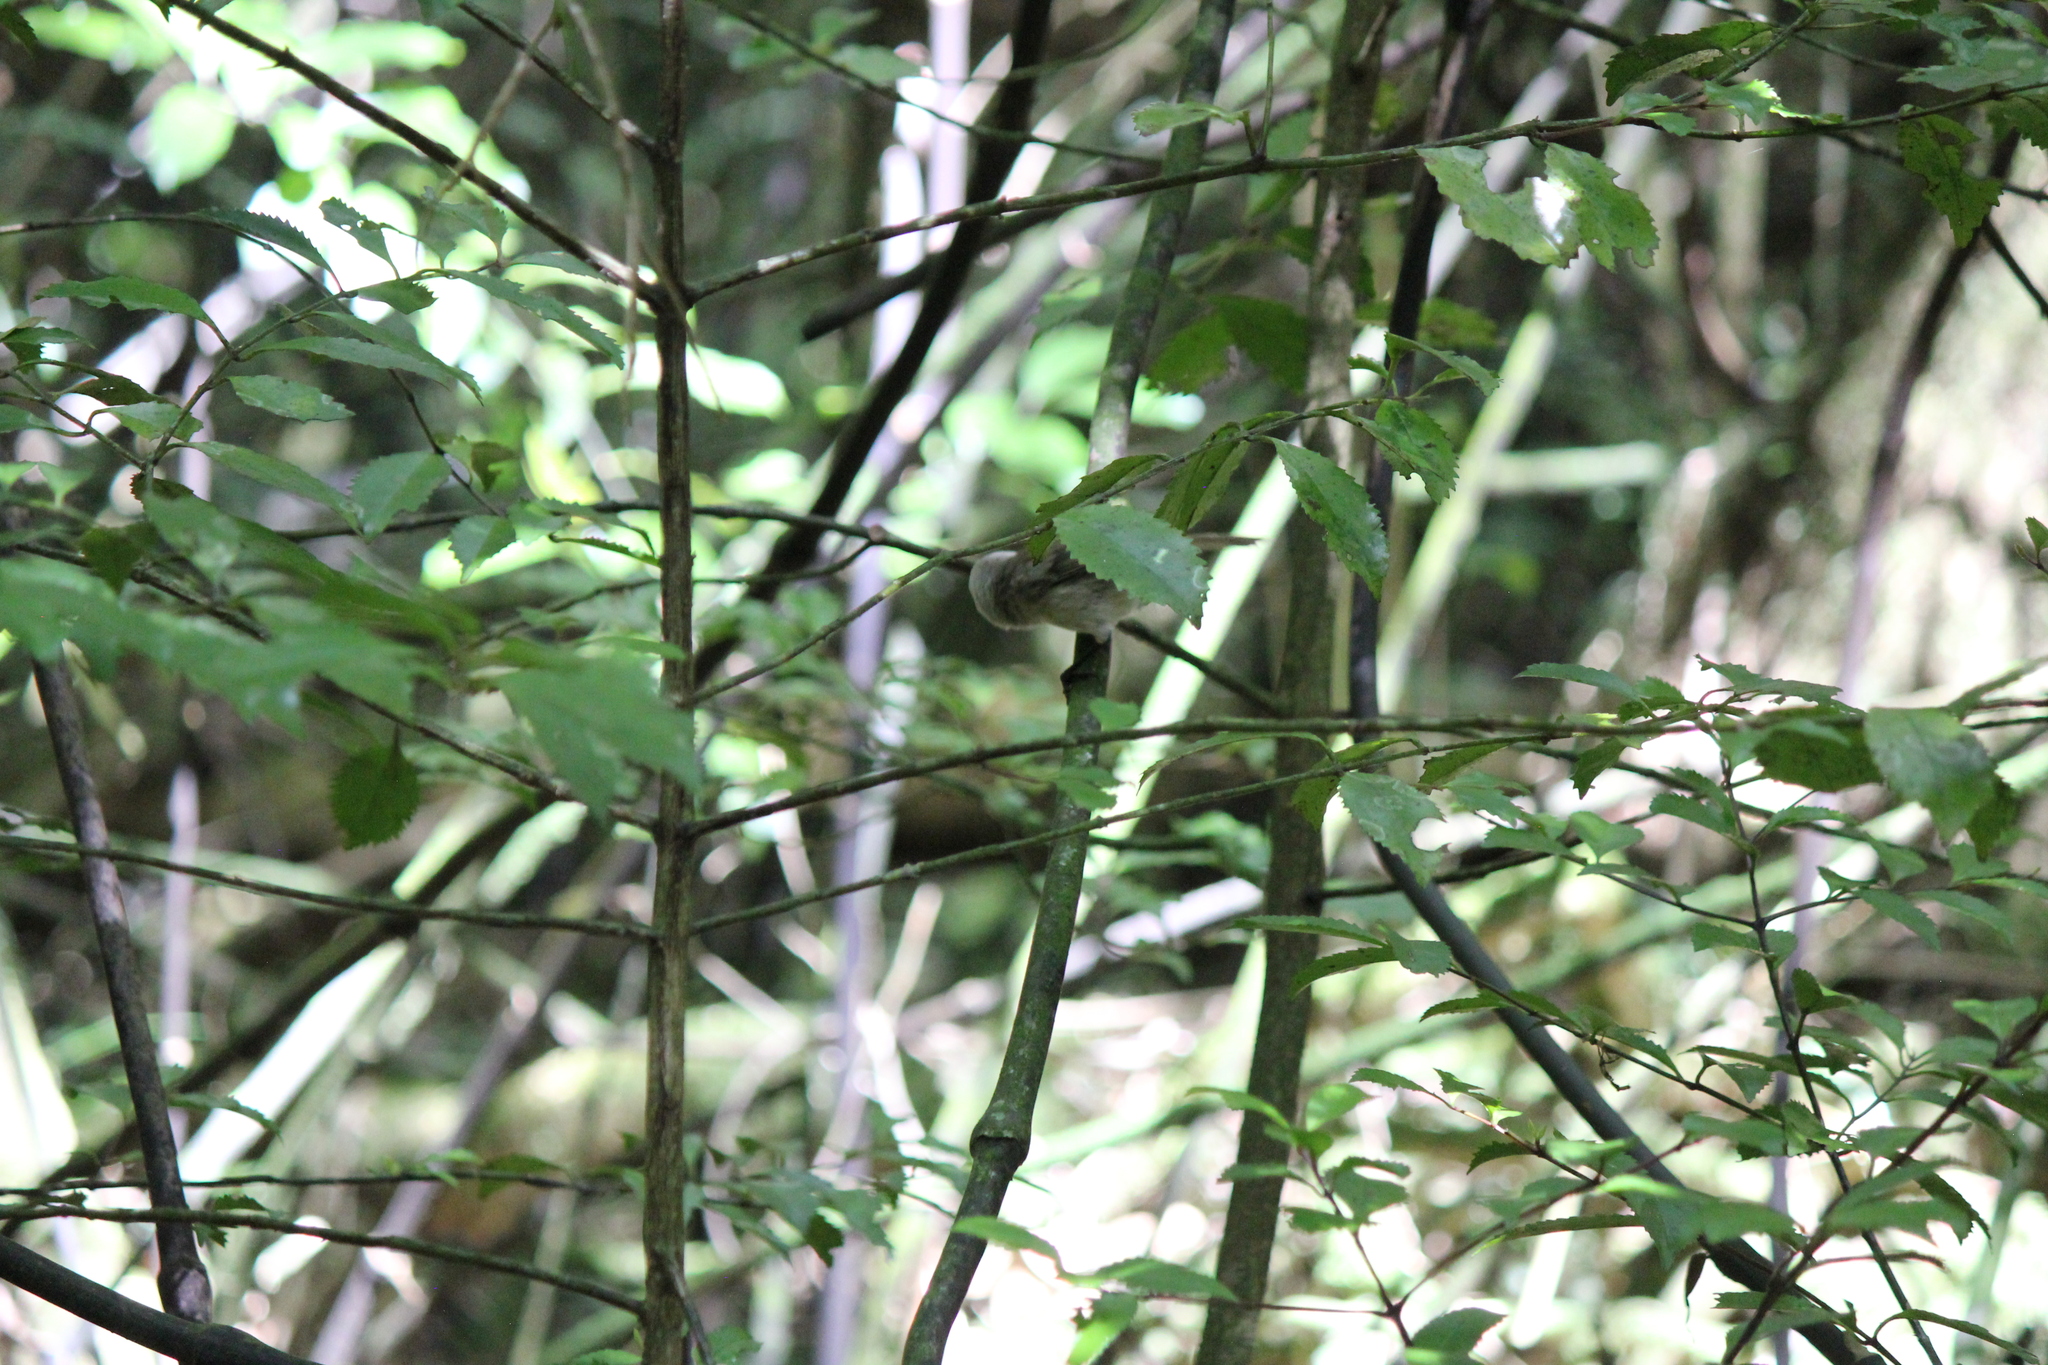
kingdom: Animalia
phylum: Chordata
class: Aves
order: Passeriformes
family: Acanthizidae
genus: Mohoua
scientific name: Mohoua albicilla
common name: Whitehead
